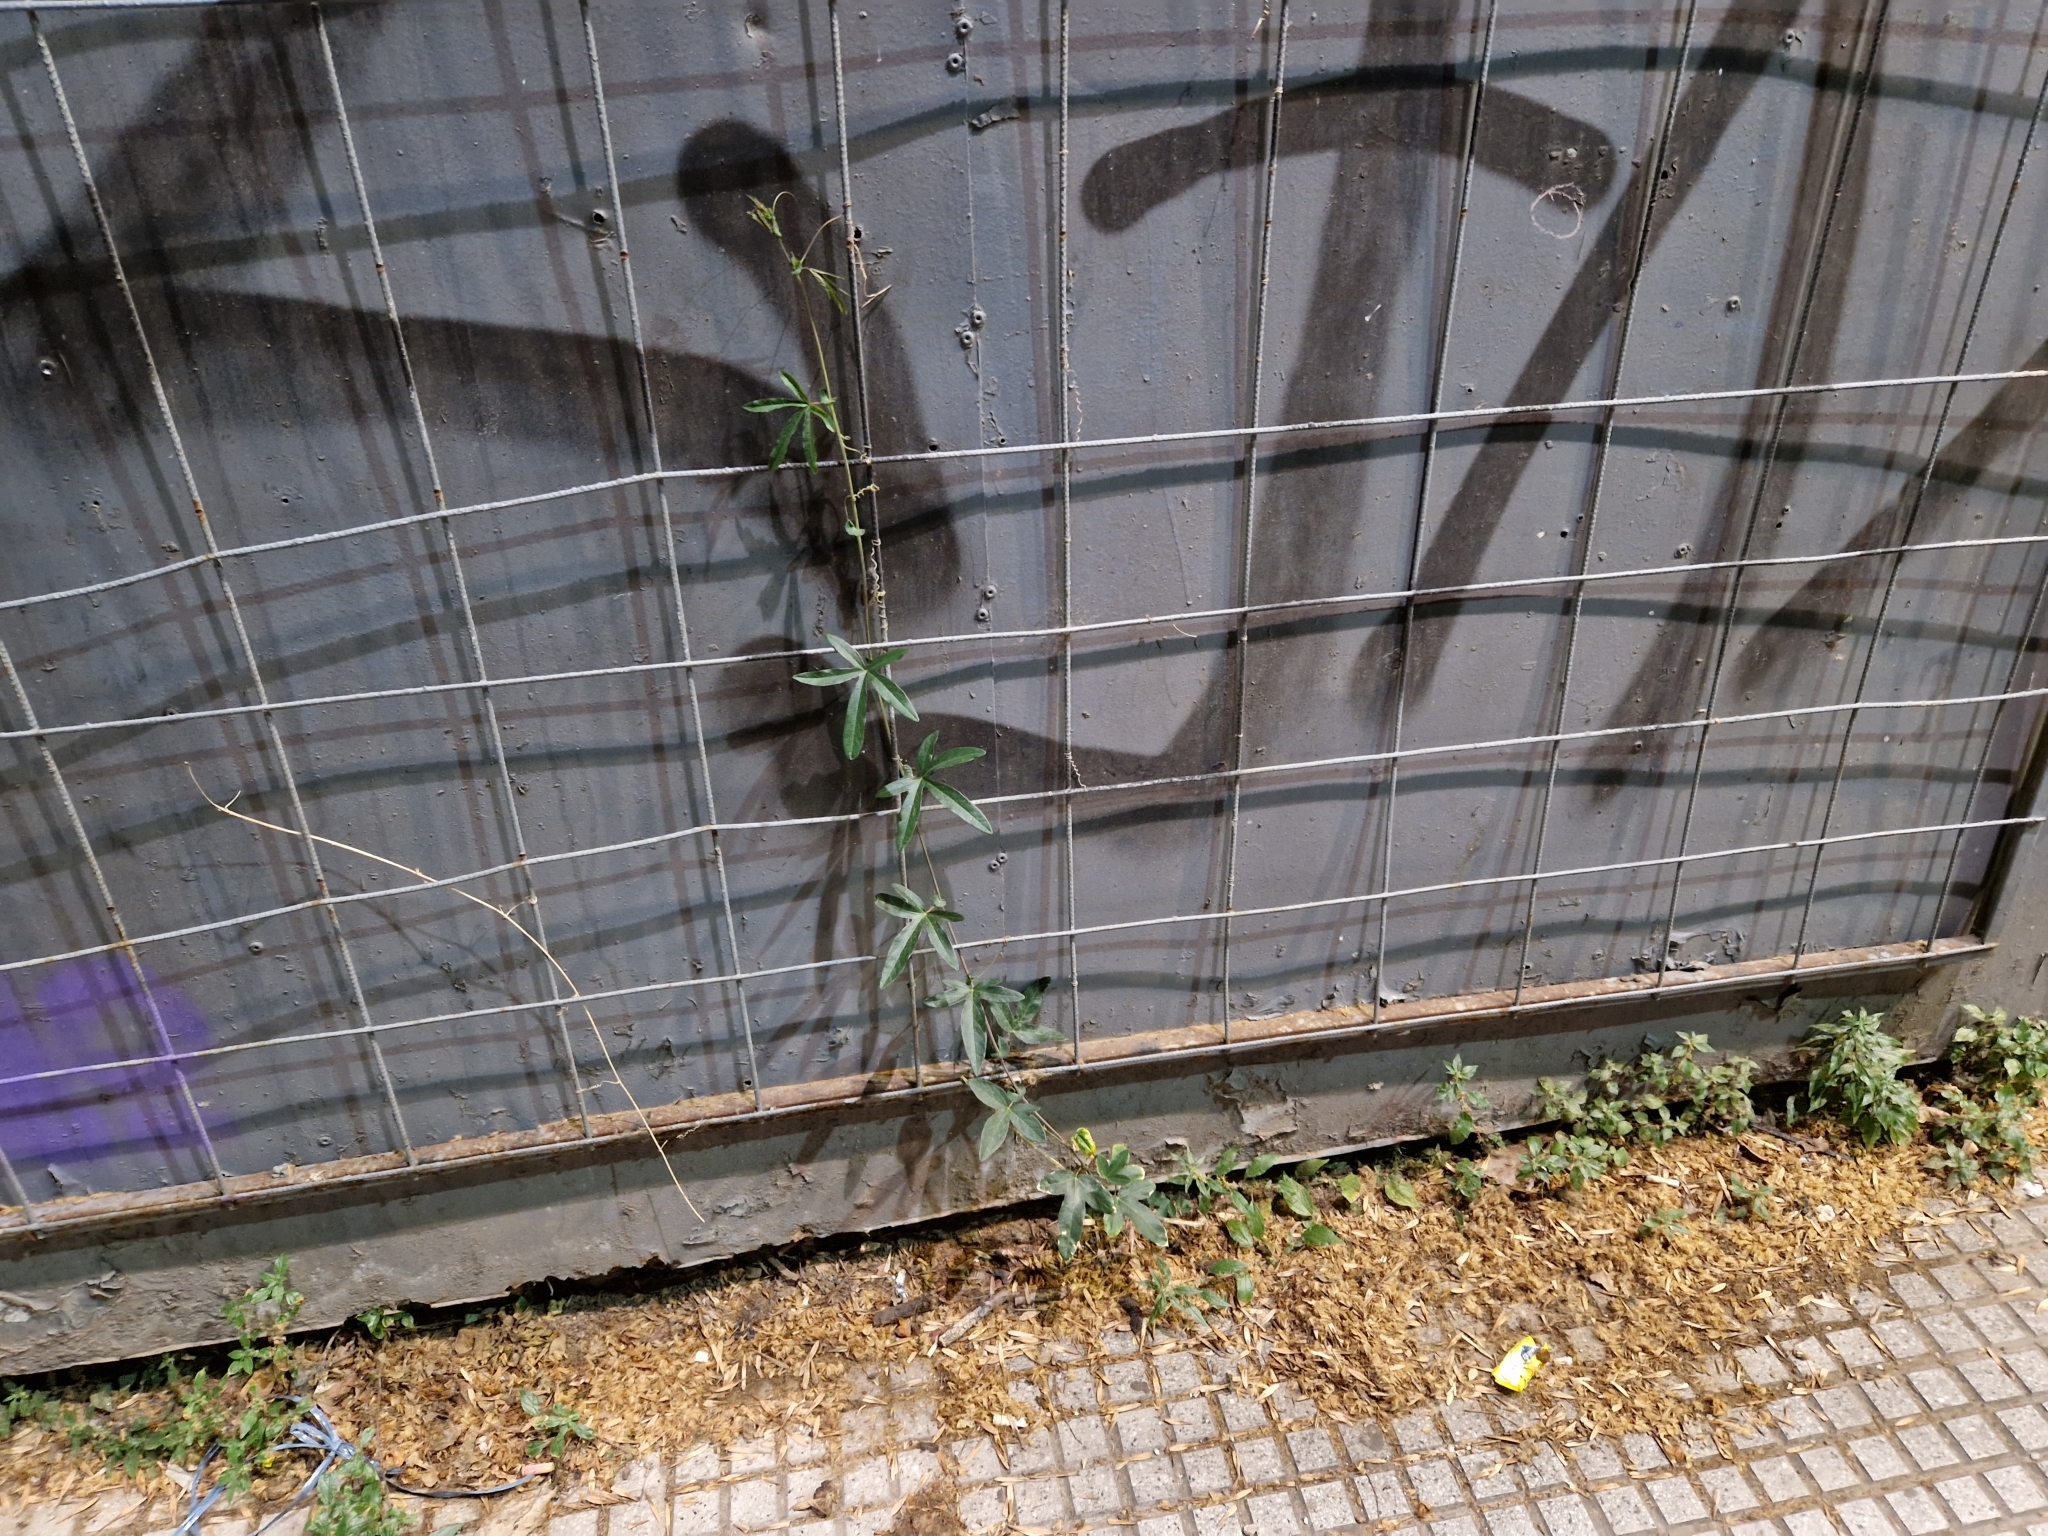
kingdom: Plantae
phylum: Tracheophyta
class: Magnoliopsida
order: Malpighiales
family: Passifloraceae
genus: Passiflora
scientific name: Passiflora caerulea
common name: Blue passionflower
